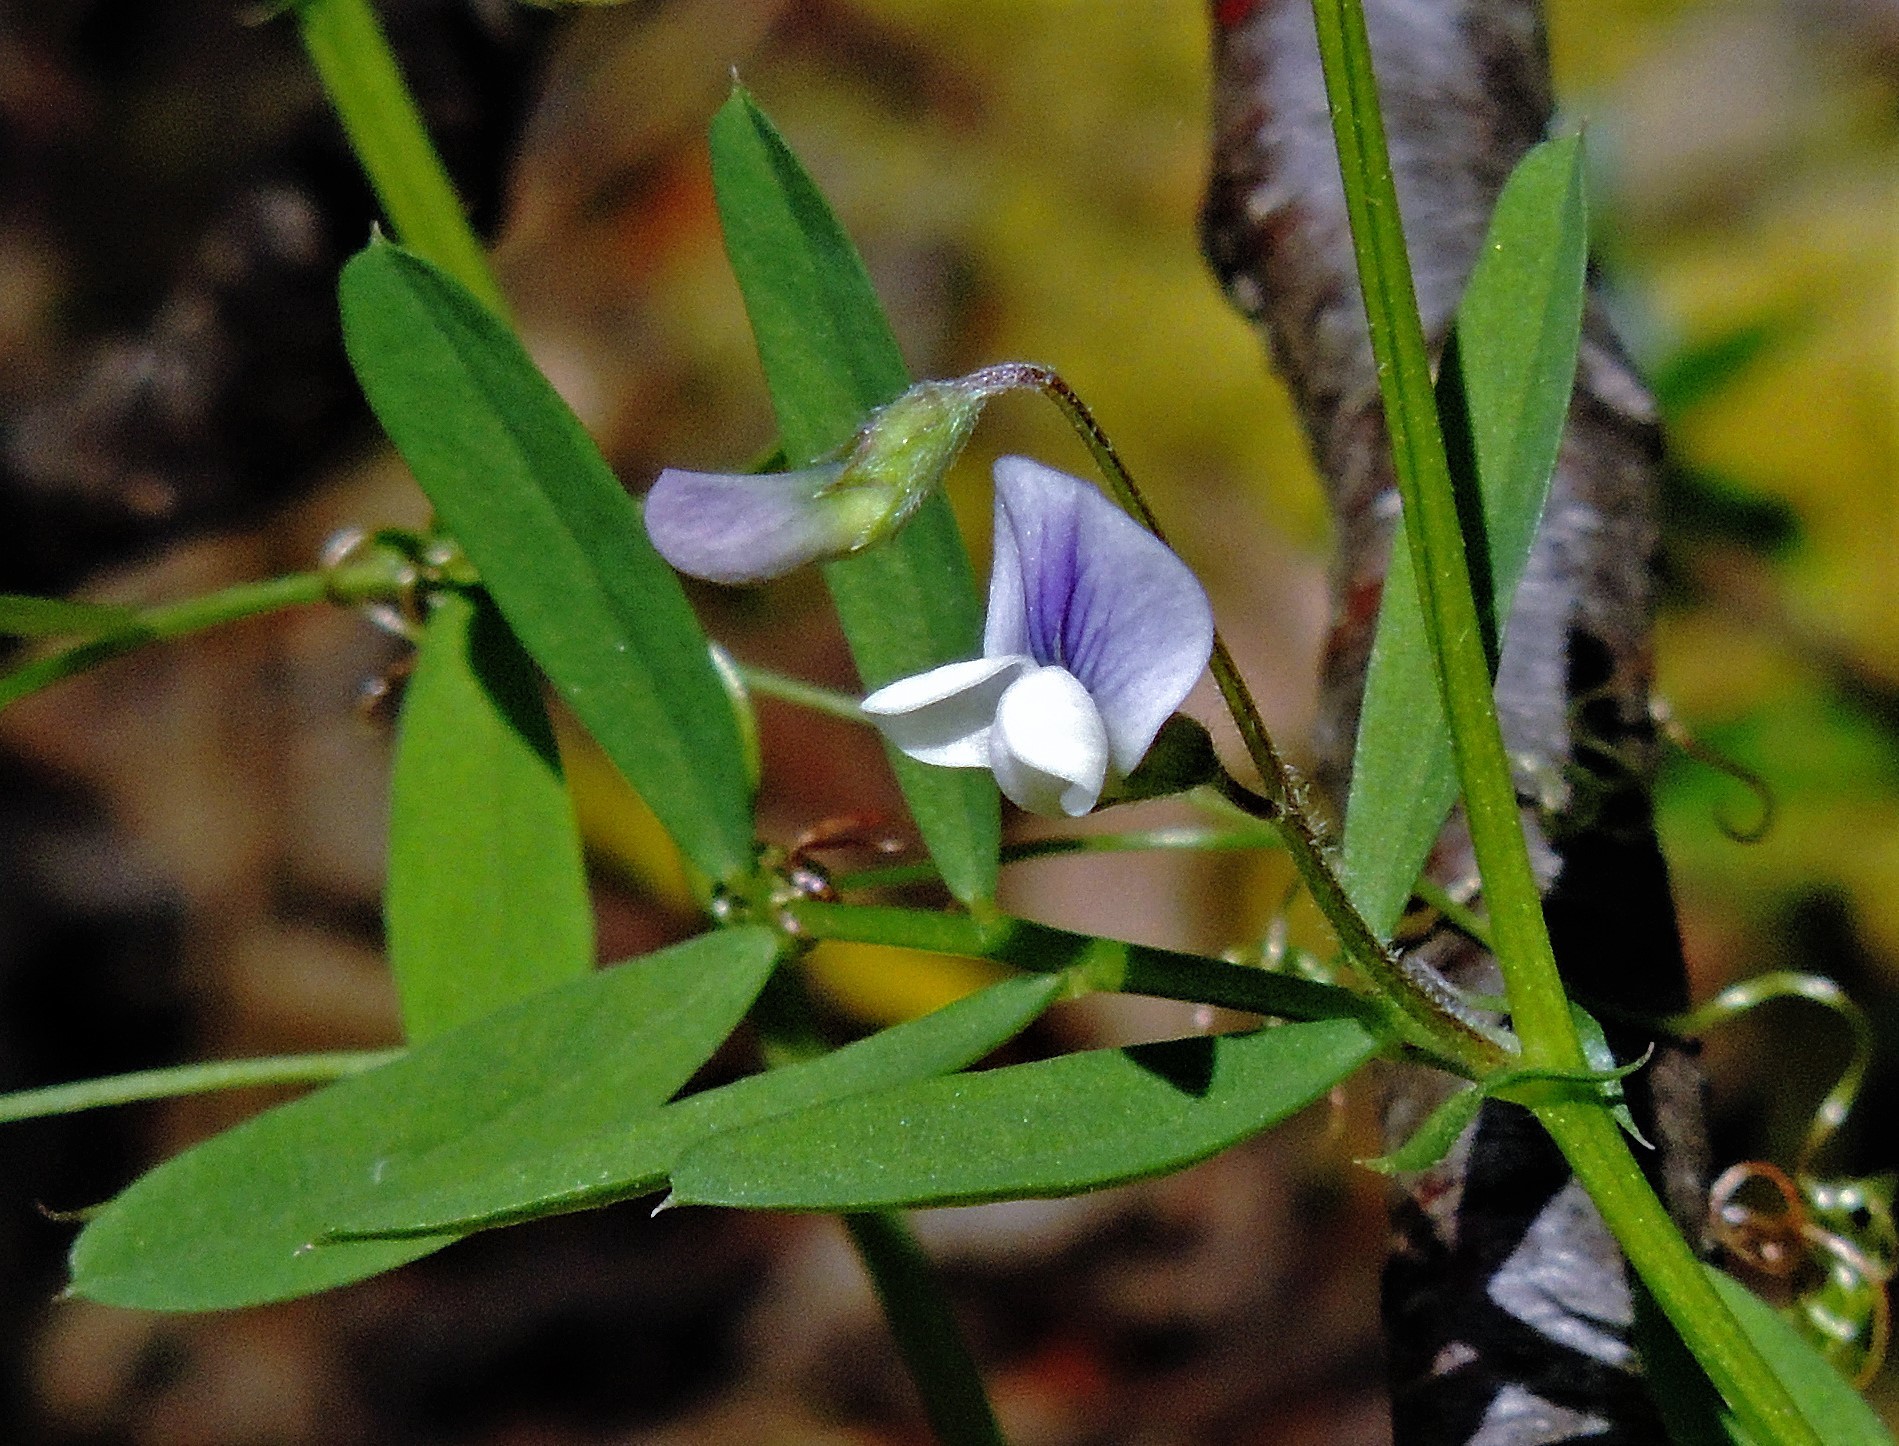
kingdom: Plantae
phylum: Tracheophyta
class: Magnoliopsida
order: Fabales
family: Fabaceae
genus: Vicia
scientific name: Vicia magellanica
